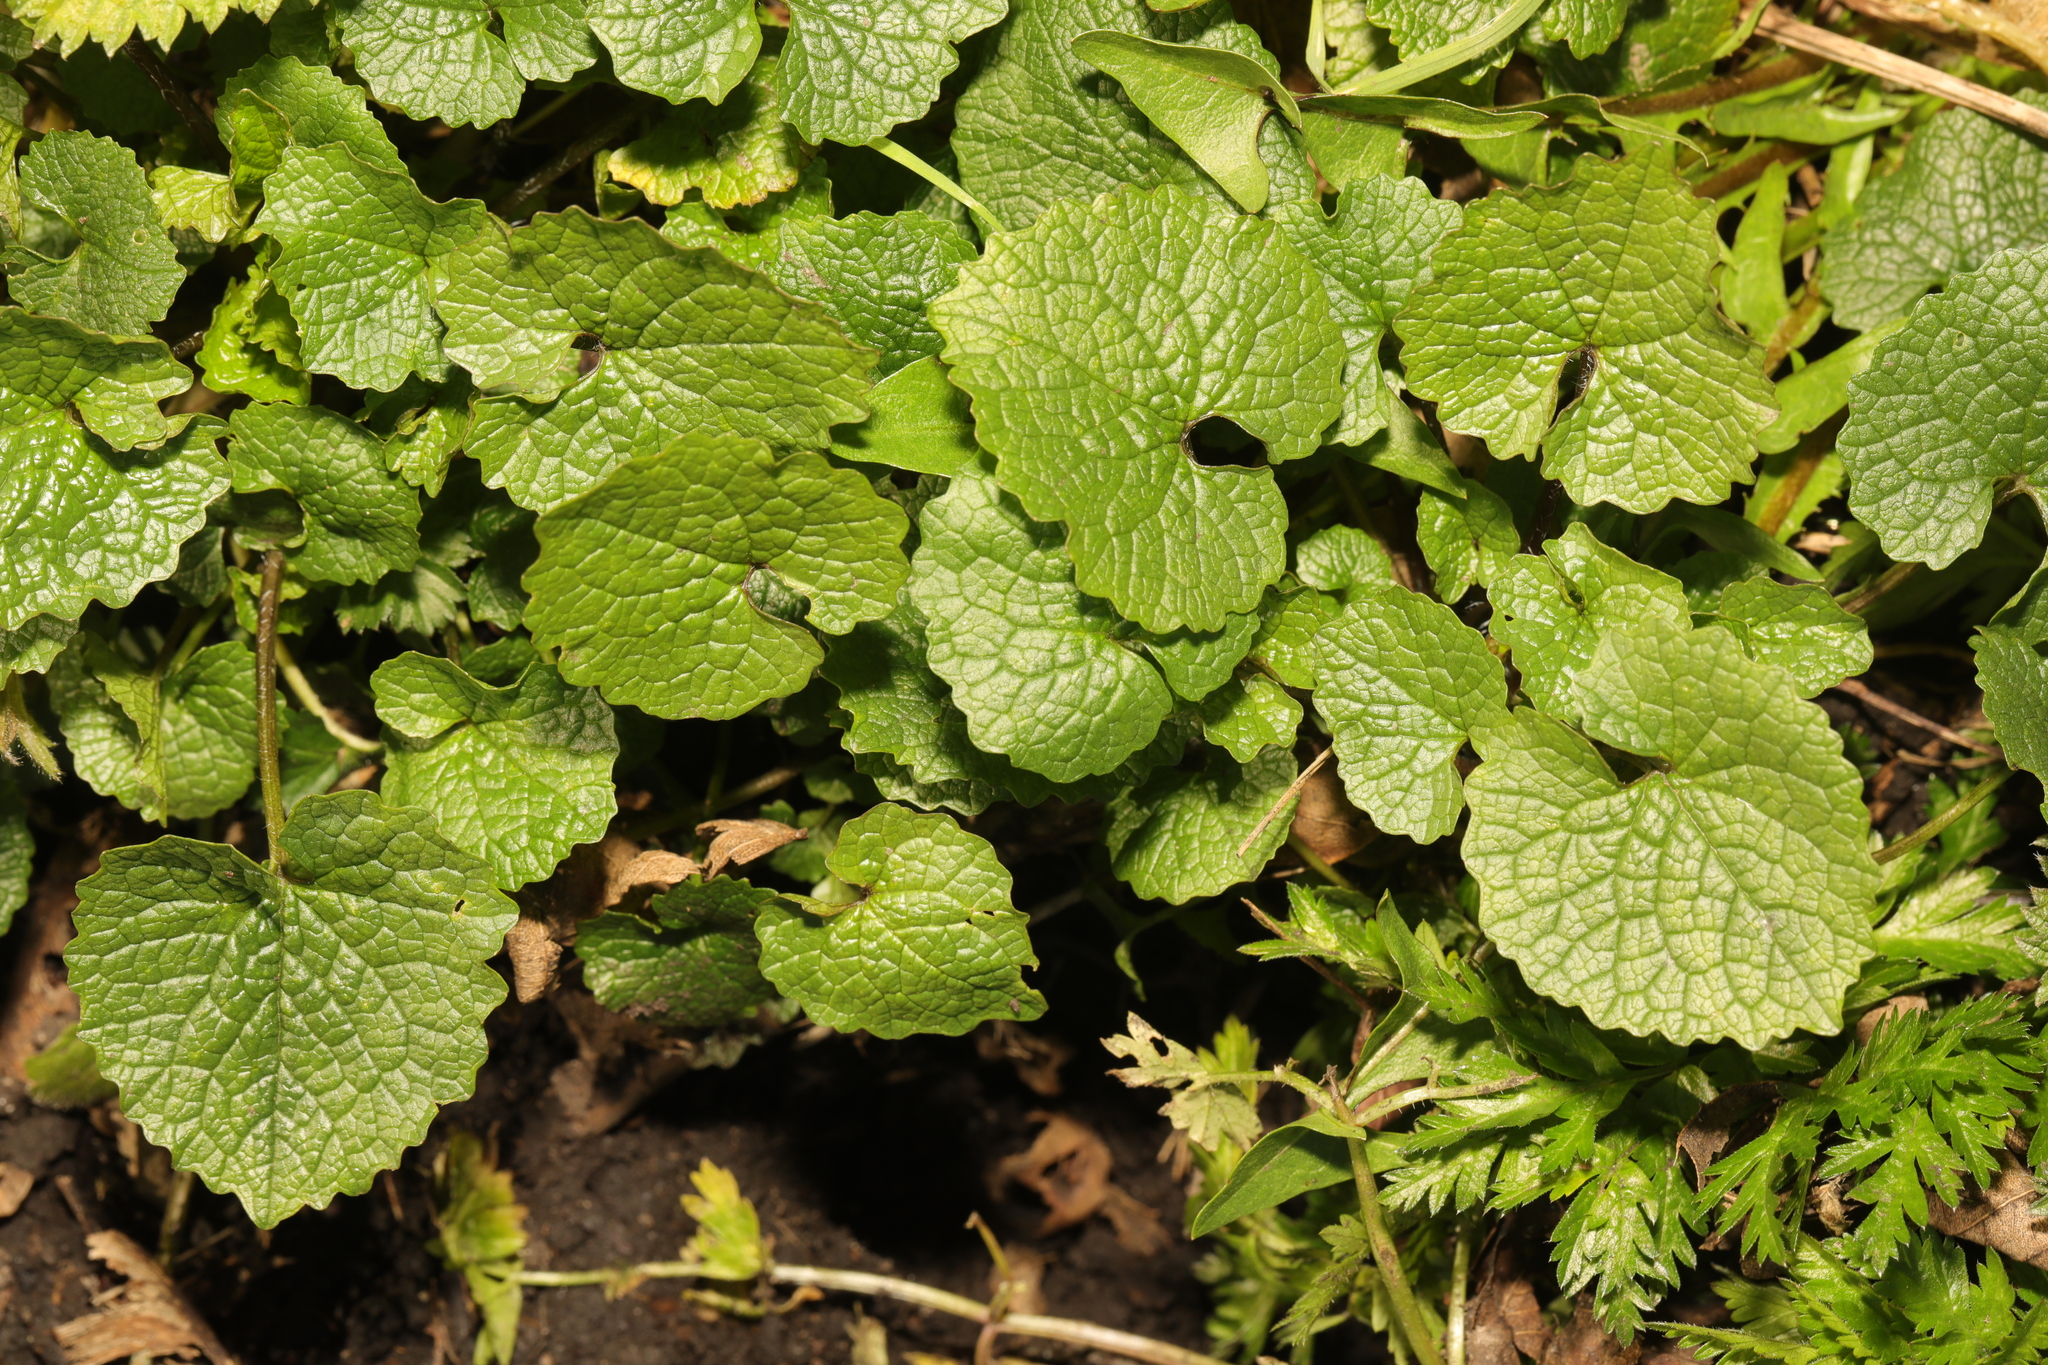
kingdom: Plantae
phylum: Tracheophyta
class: Magnoliopsida
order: Brassicales
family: Brassicaceae
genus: Alliaria
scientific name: Alliaria petiolata
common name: Garlic mustard
